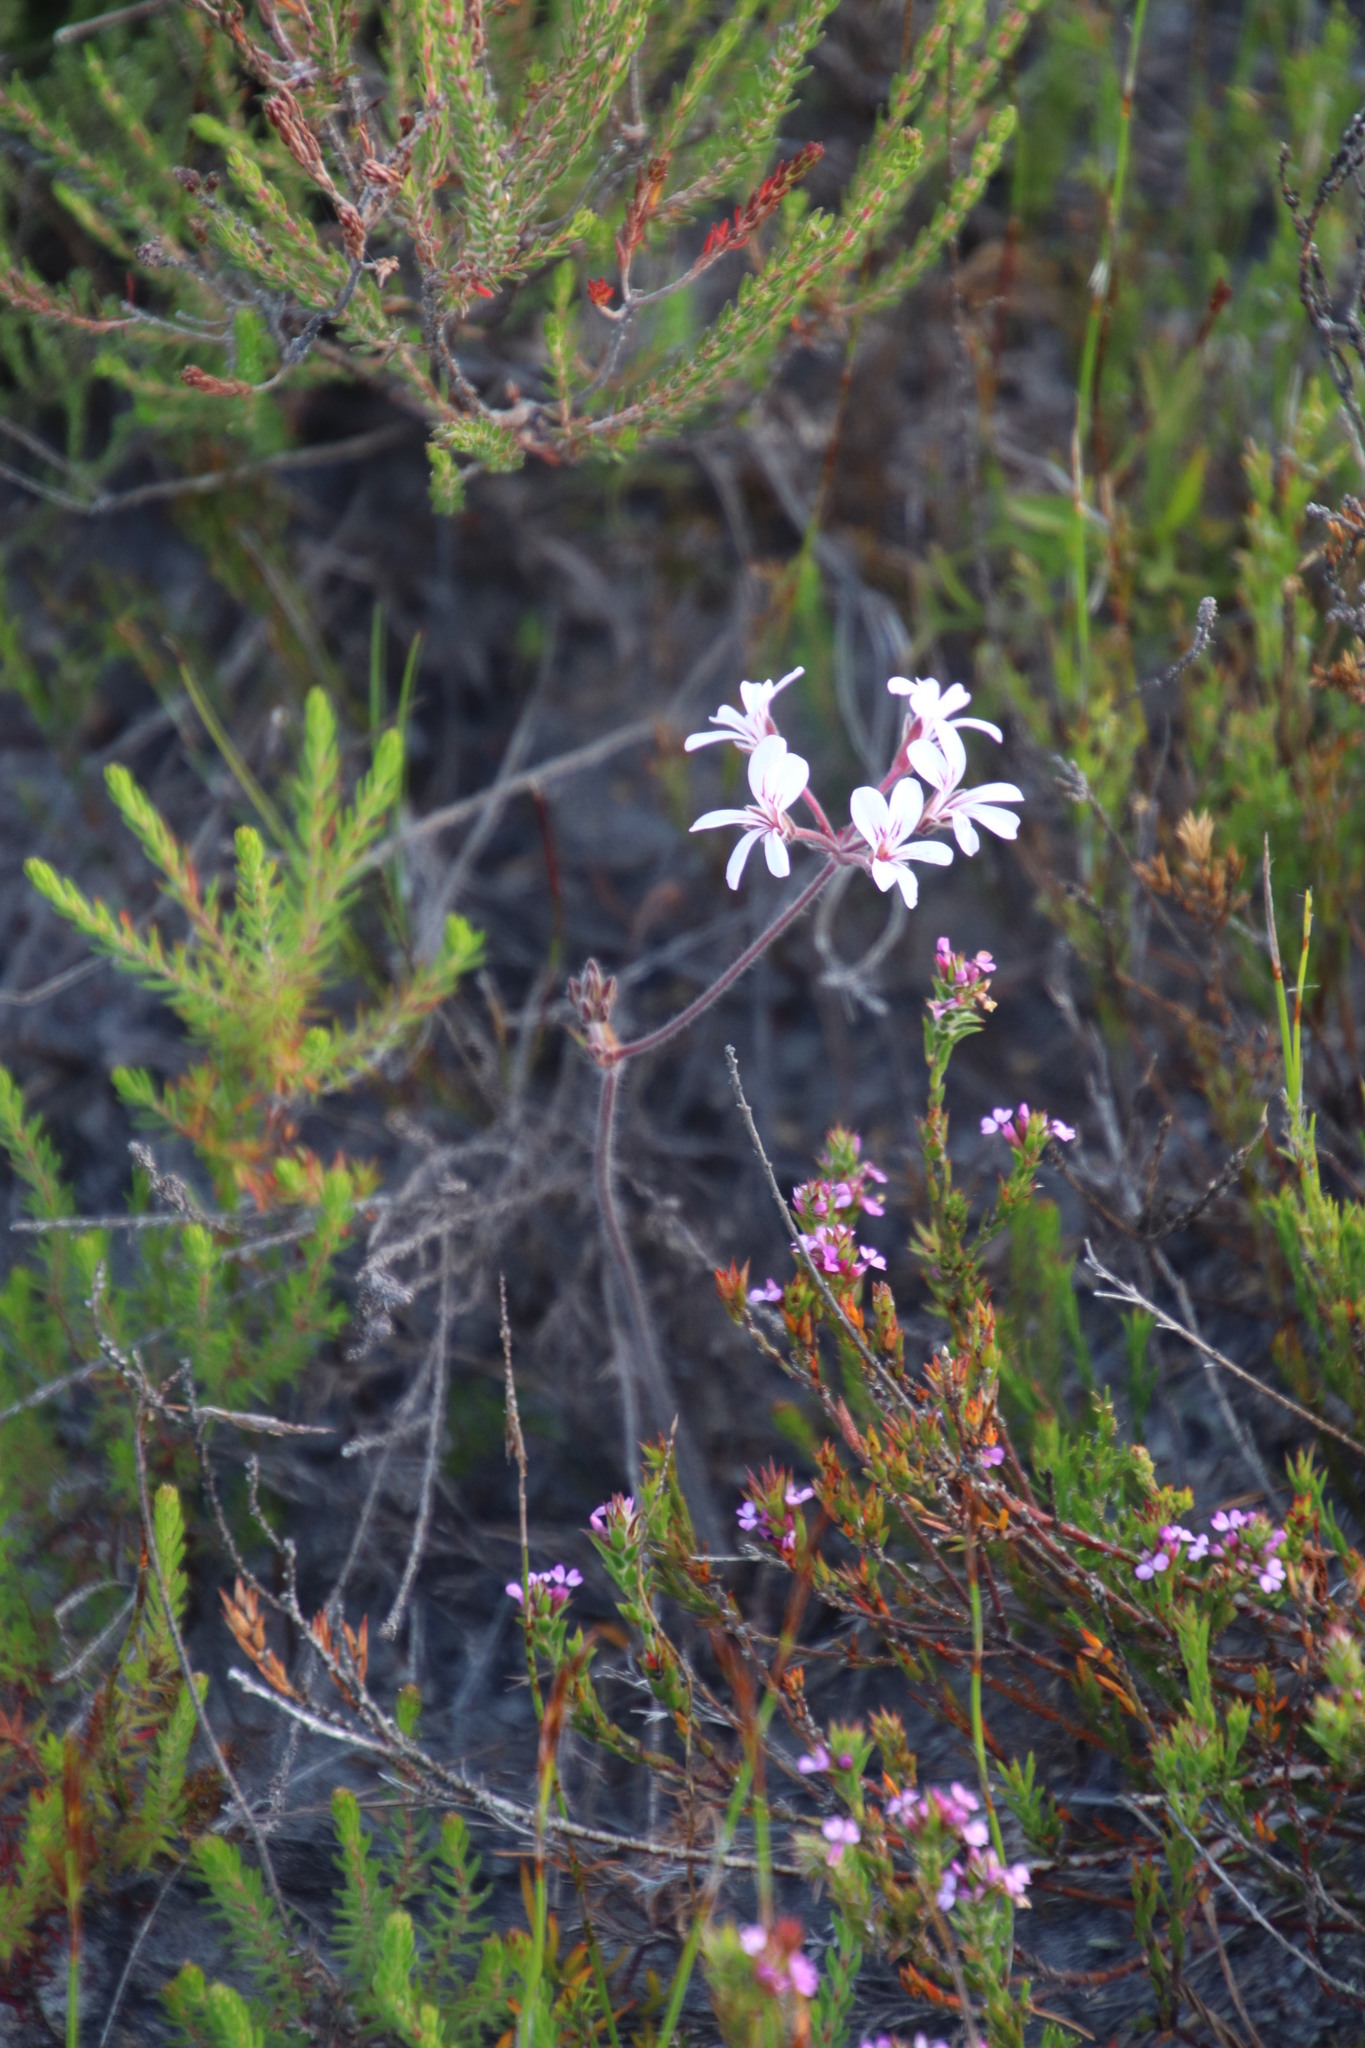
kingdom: Plantae
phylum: Tracheophyta
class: Magnoliopsida
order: Geraniales
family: Geraniaceae
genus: Pelargonium
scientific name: Pelargonium proliferum
